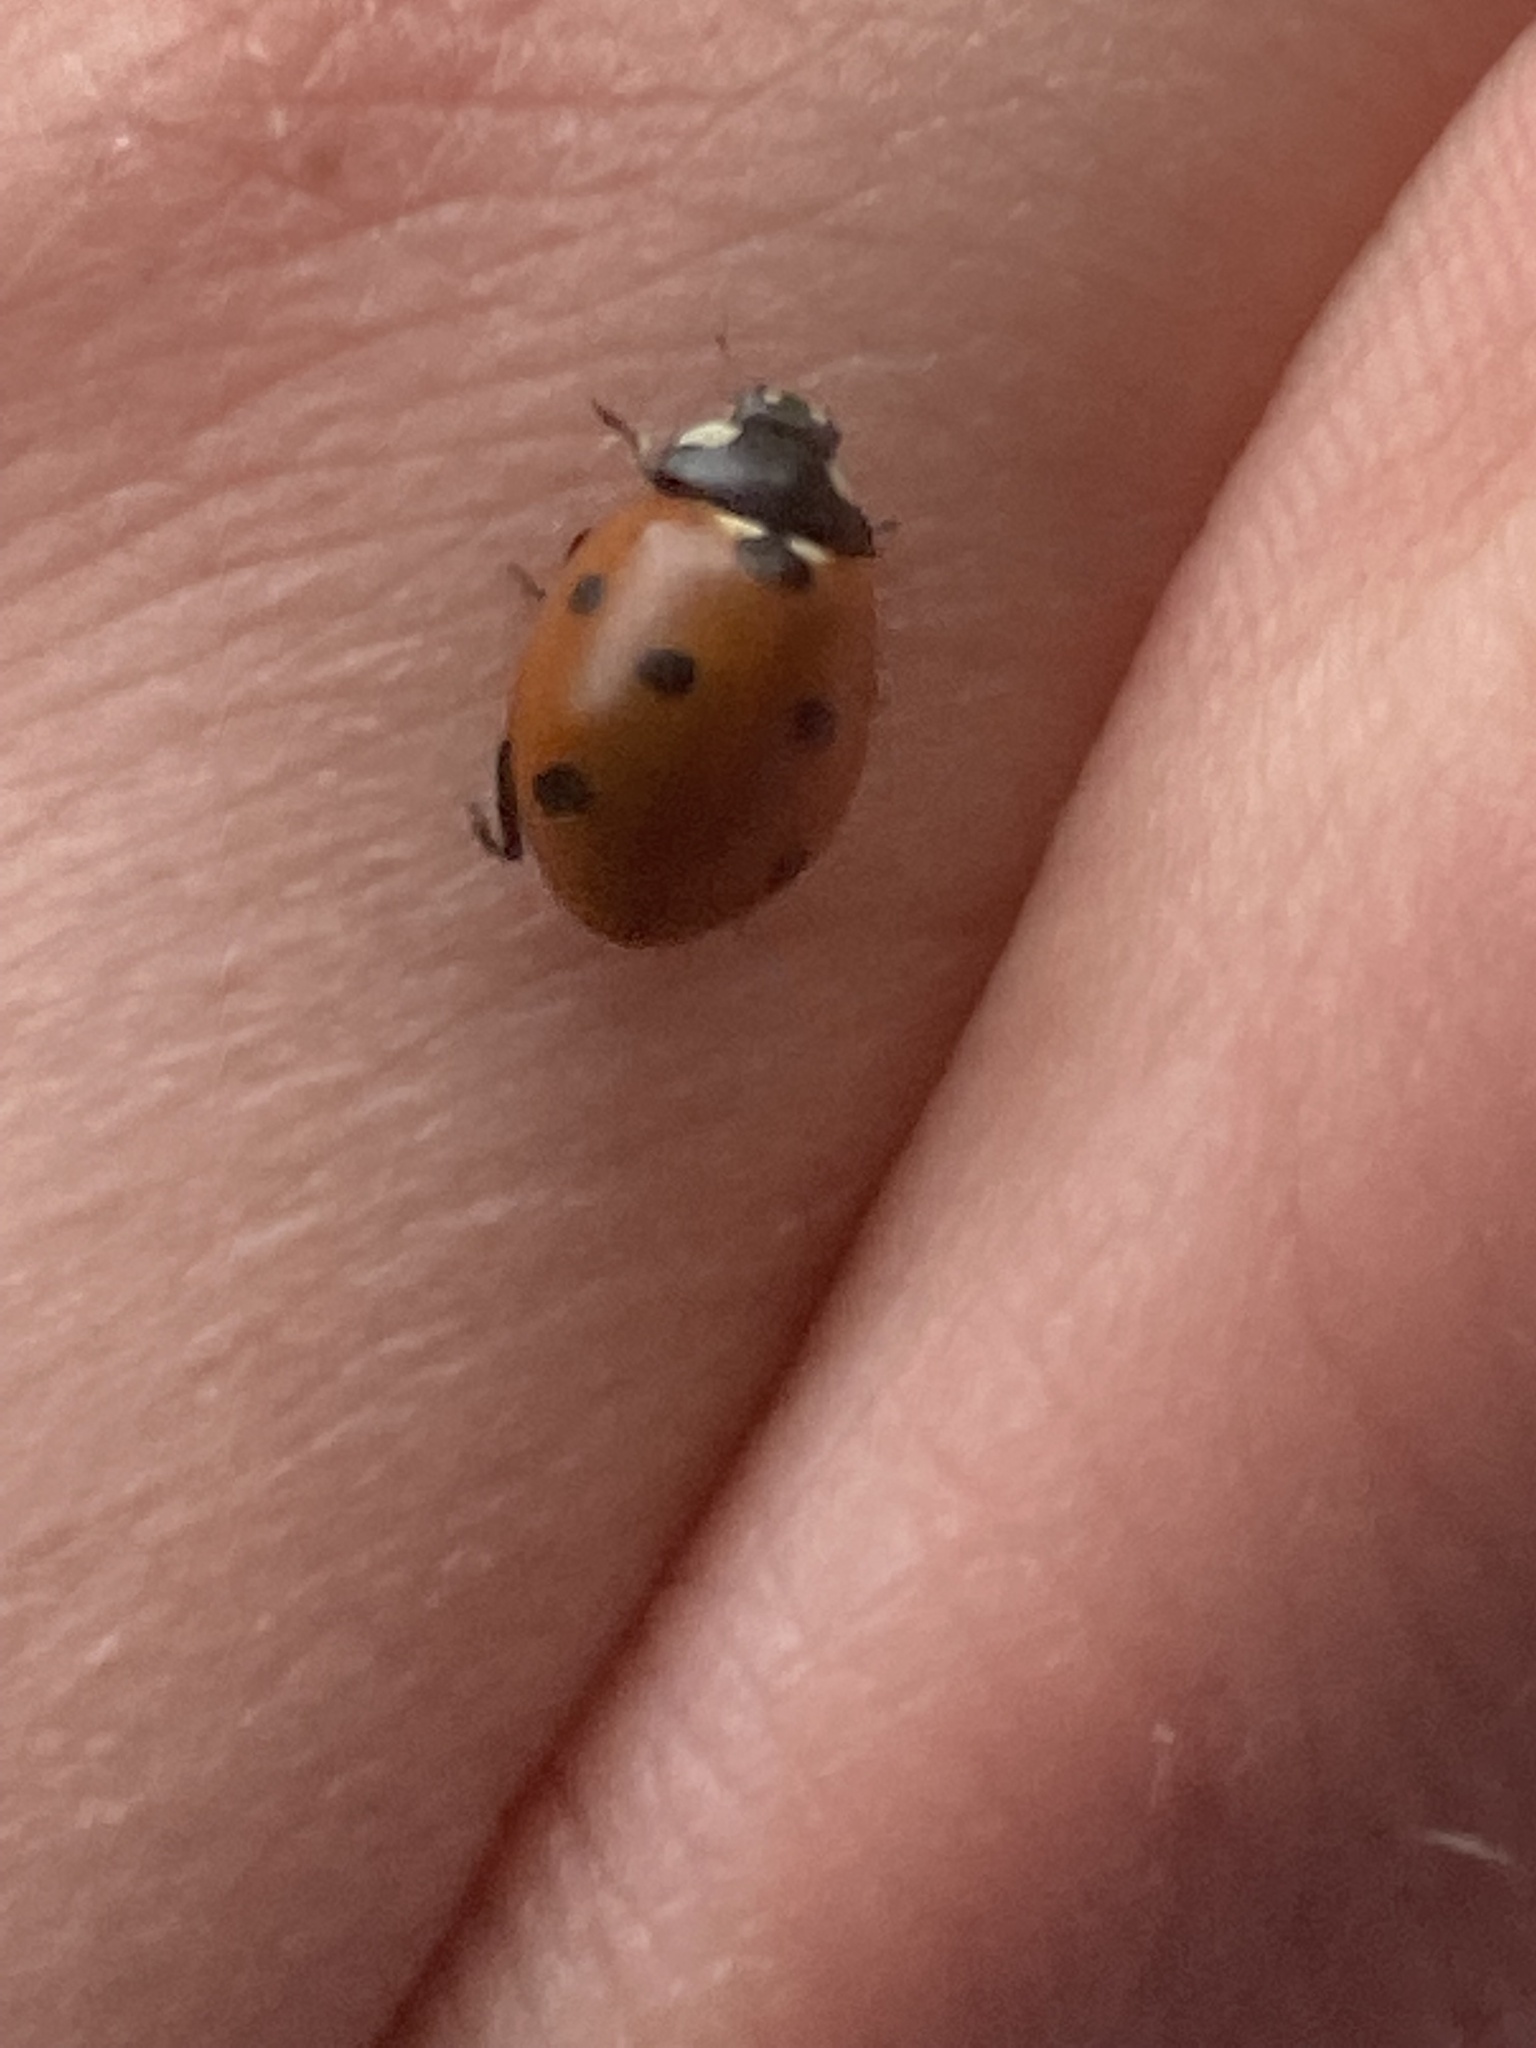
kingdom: Animalia
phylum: Arthropoda
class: Insecta
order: Coleoptera
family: Coccinellidae
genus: Coccinella
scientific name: Coccinella septempunctata
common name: Sevenspotted lady beetle
